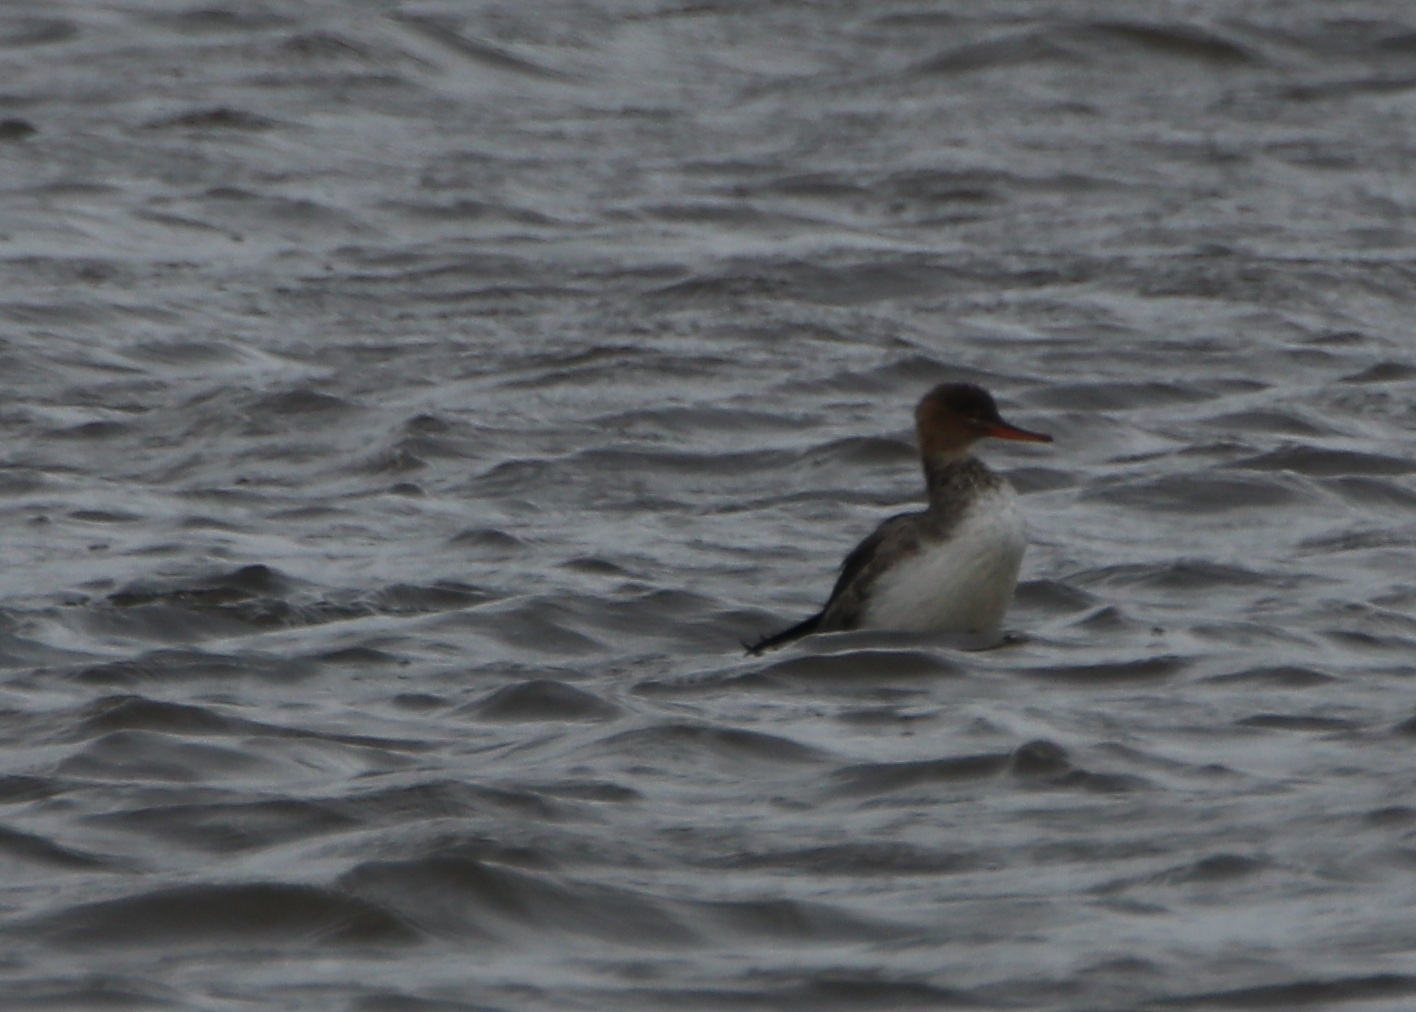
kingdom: Animalia
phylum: Chordata
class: Aves
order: Anseriformes
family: Anatidae
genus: Mergus
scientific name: Mergus serrator
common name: Red-breasted merganser
